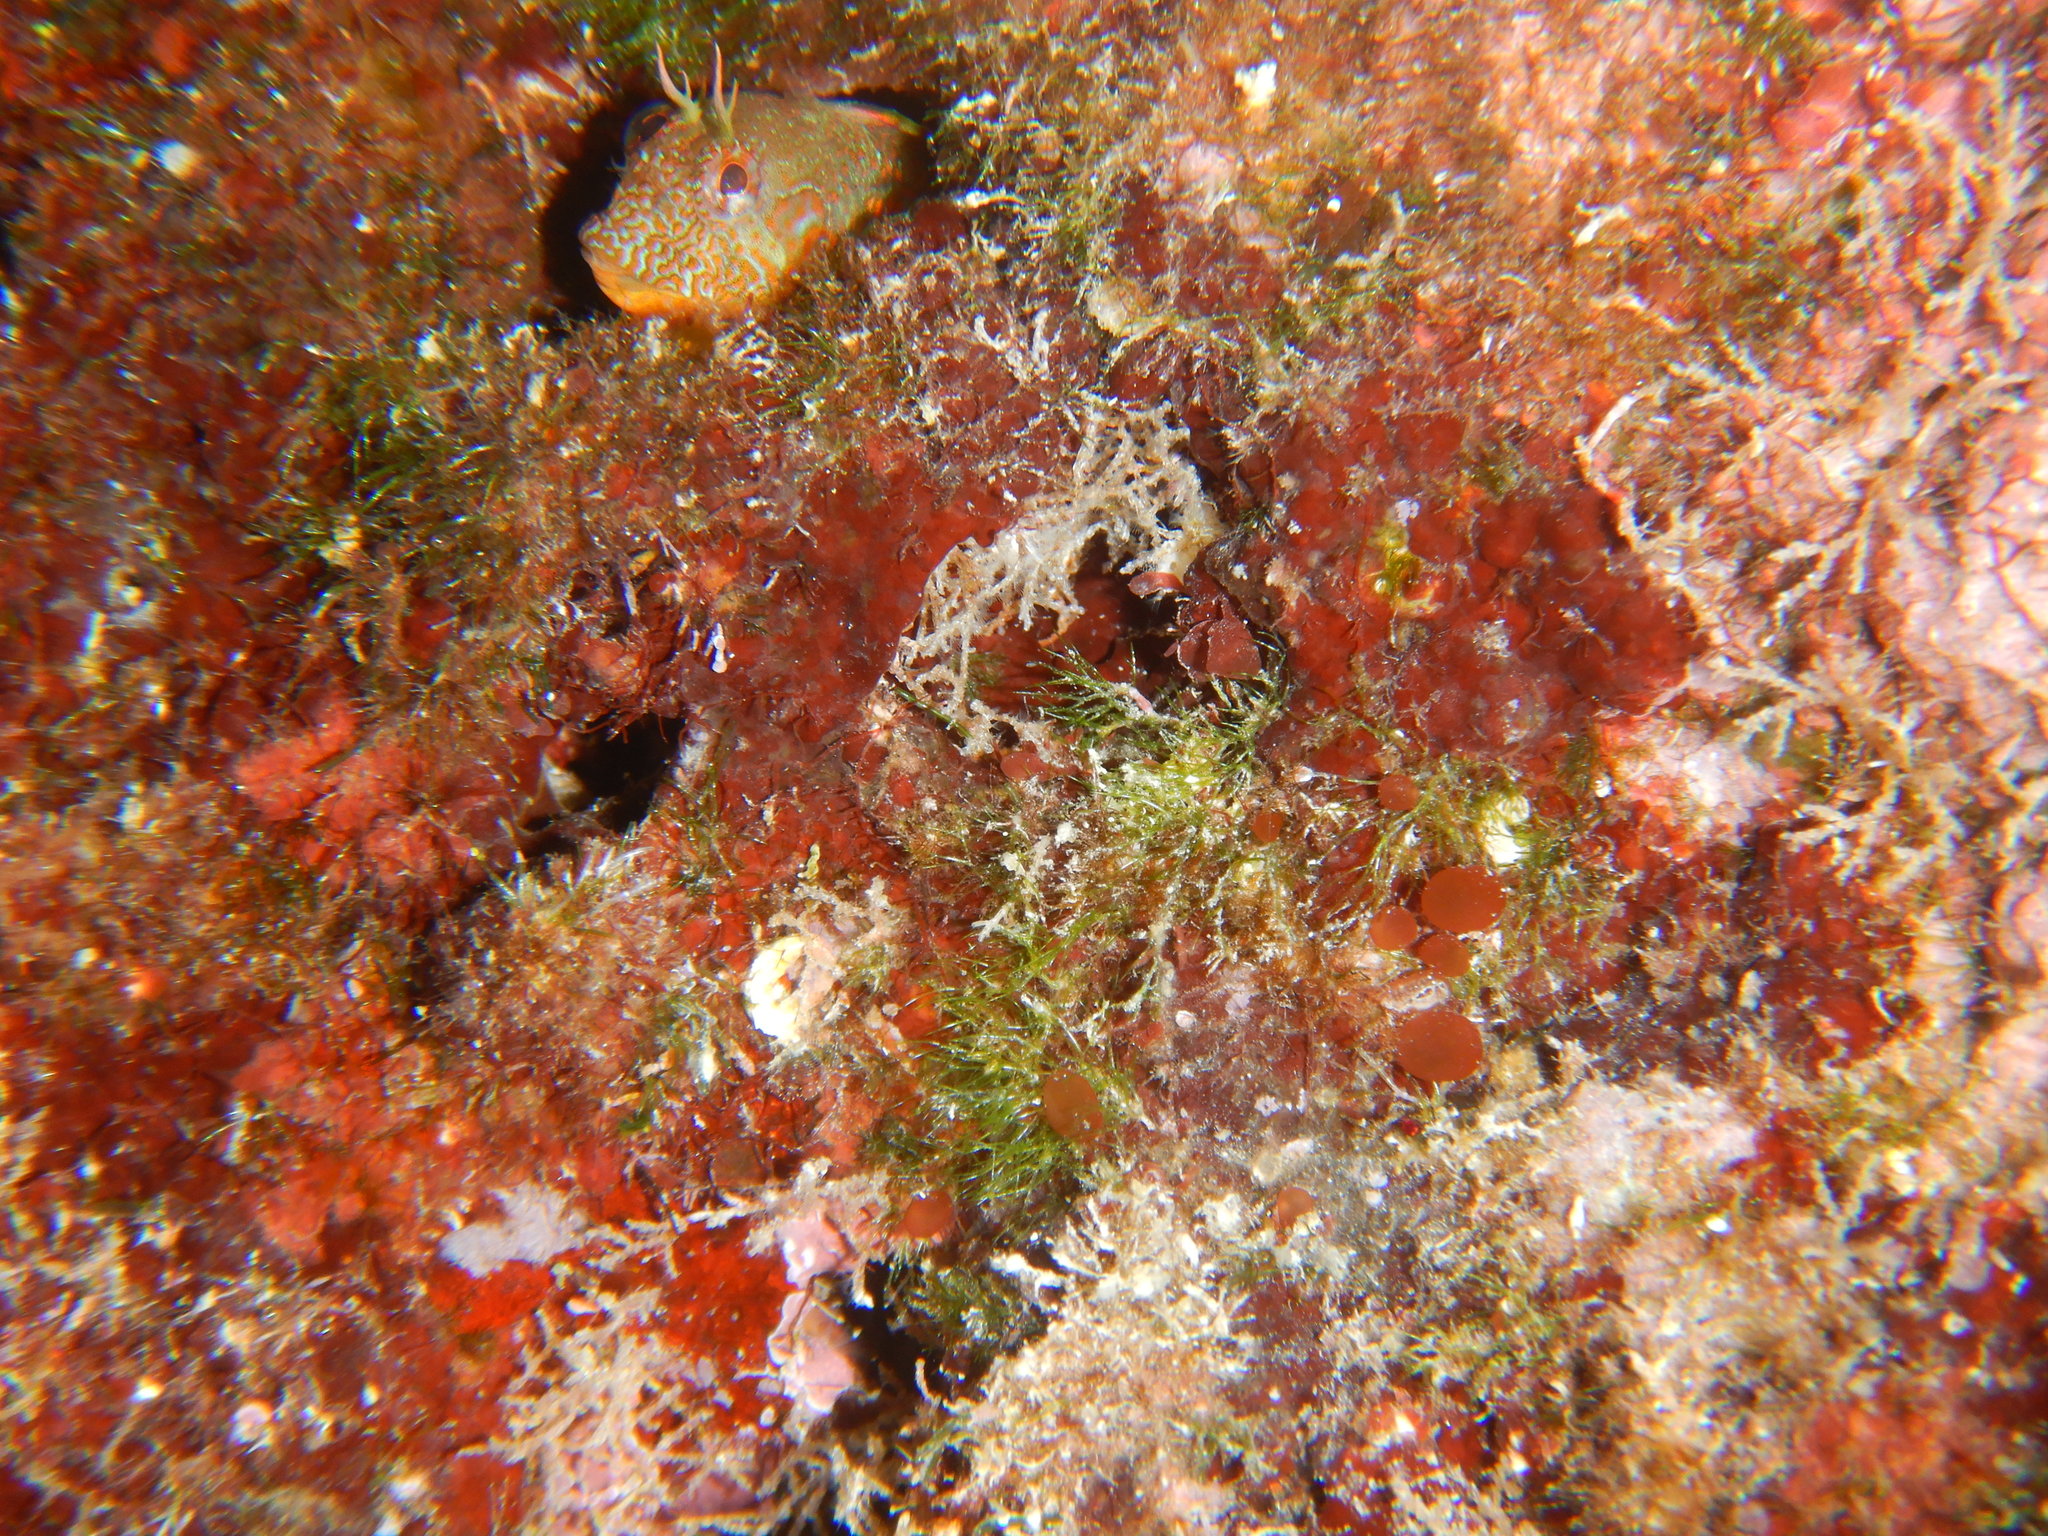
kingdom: Animalia
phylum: Chordata
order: Perciformes
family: Blenniidae
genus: Parablennius
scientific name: Parablennius incognitus
